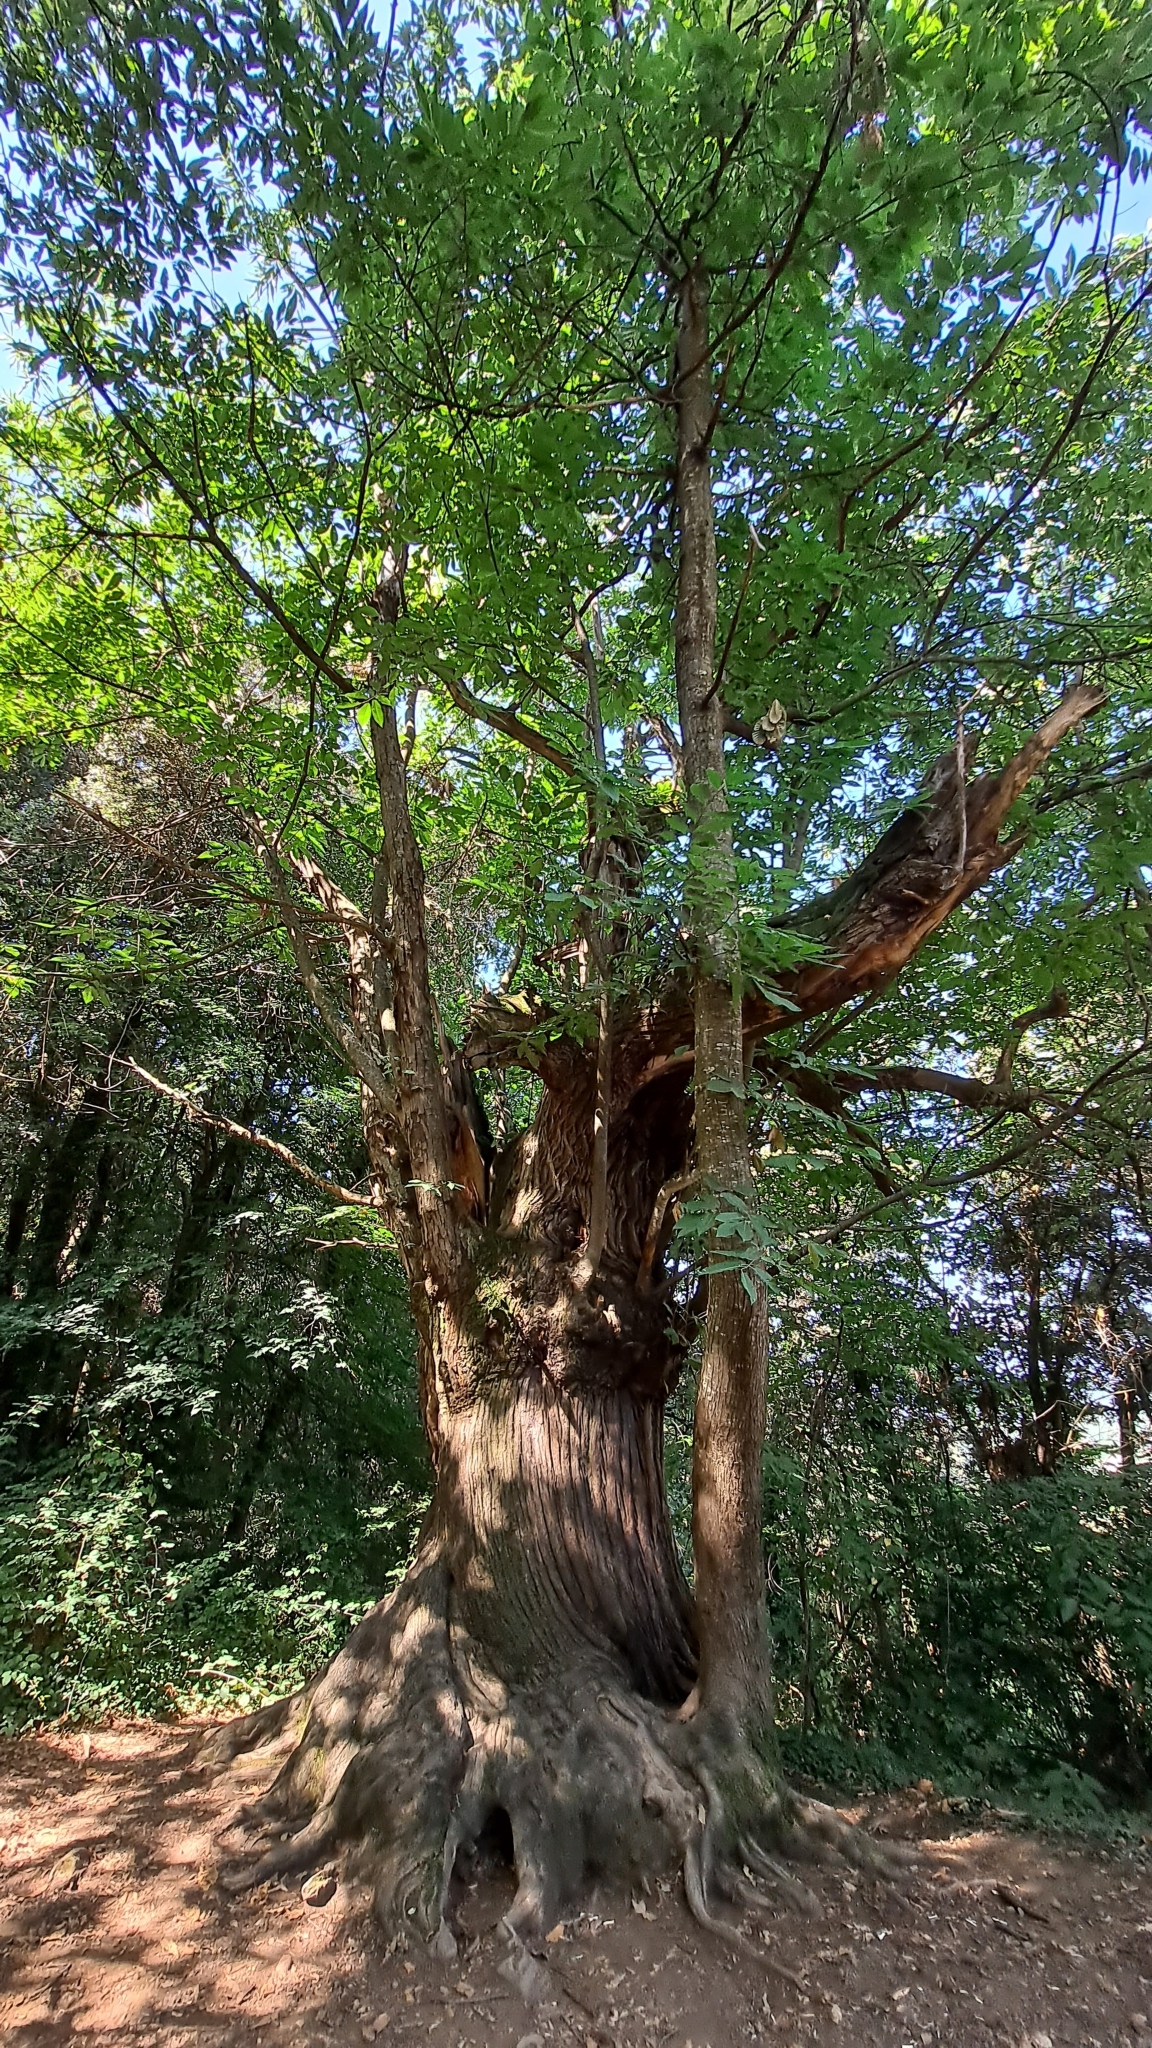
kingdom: Plantae
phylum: Tracheophyta
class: Magnoliopsida
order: Fagales
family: Fagaceae
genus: Castanea
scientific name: Castanea sativa
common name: Sweet chestnut
